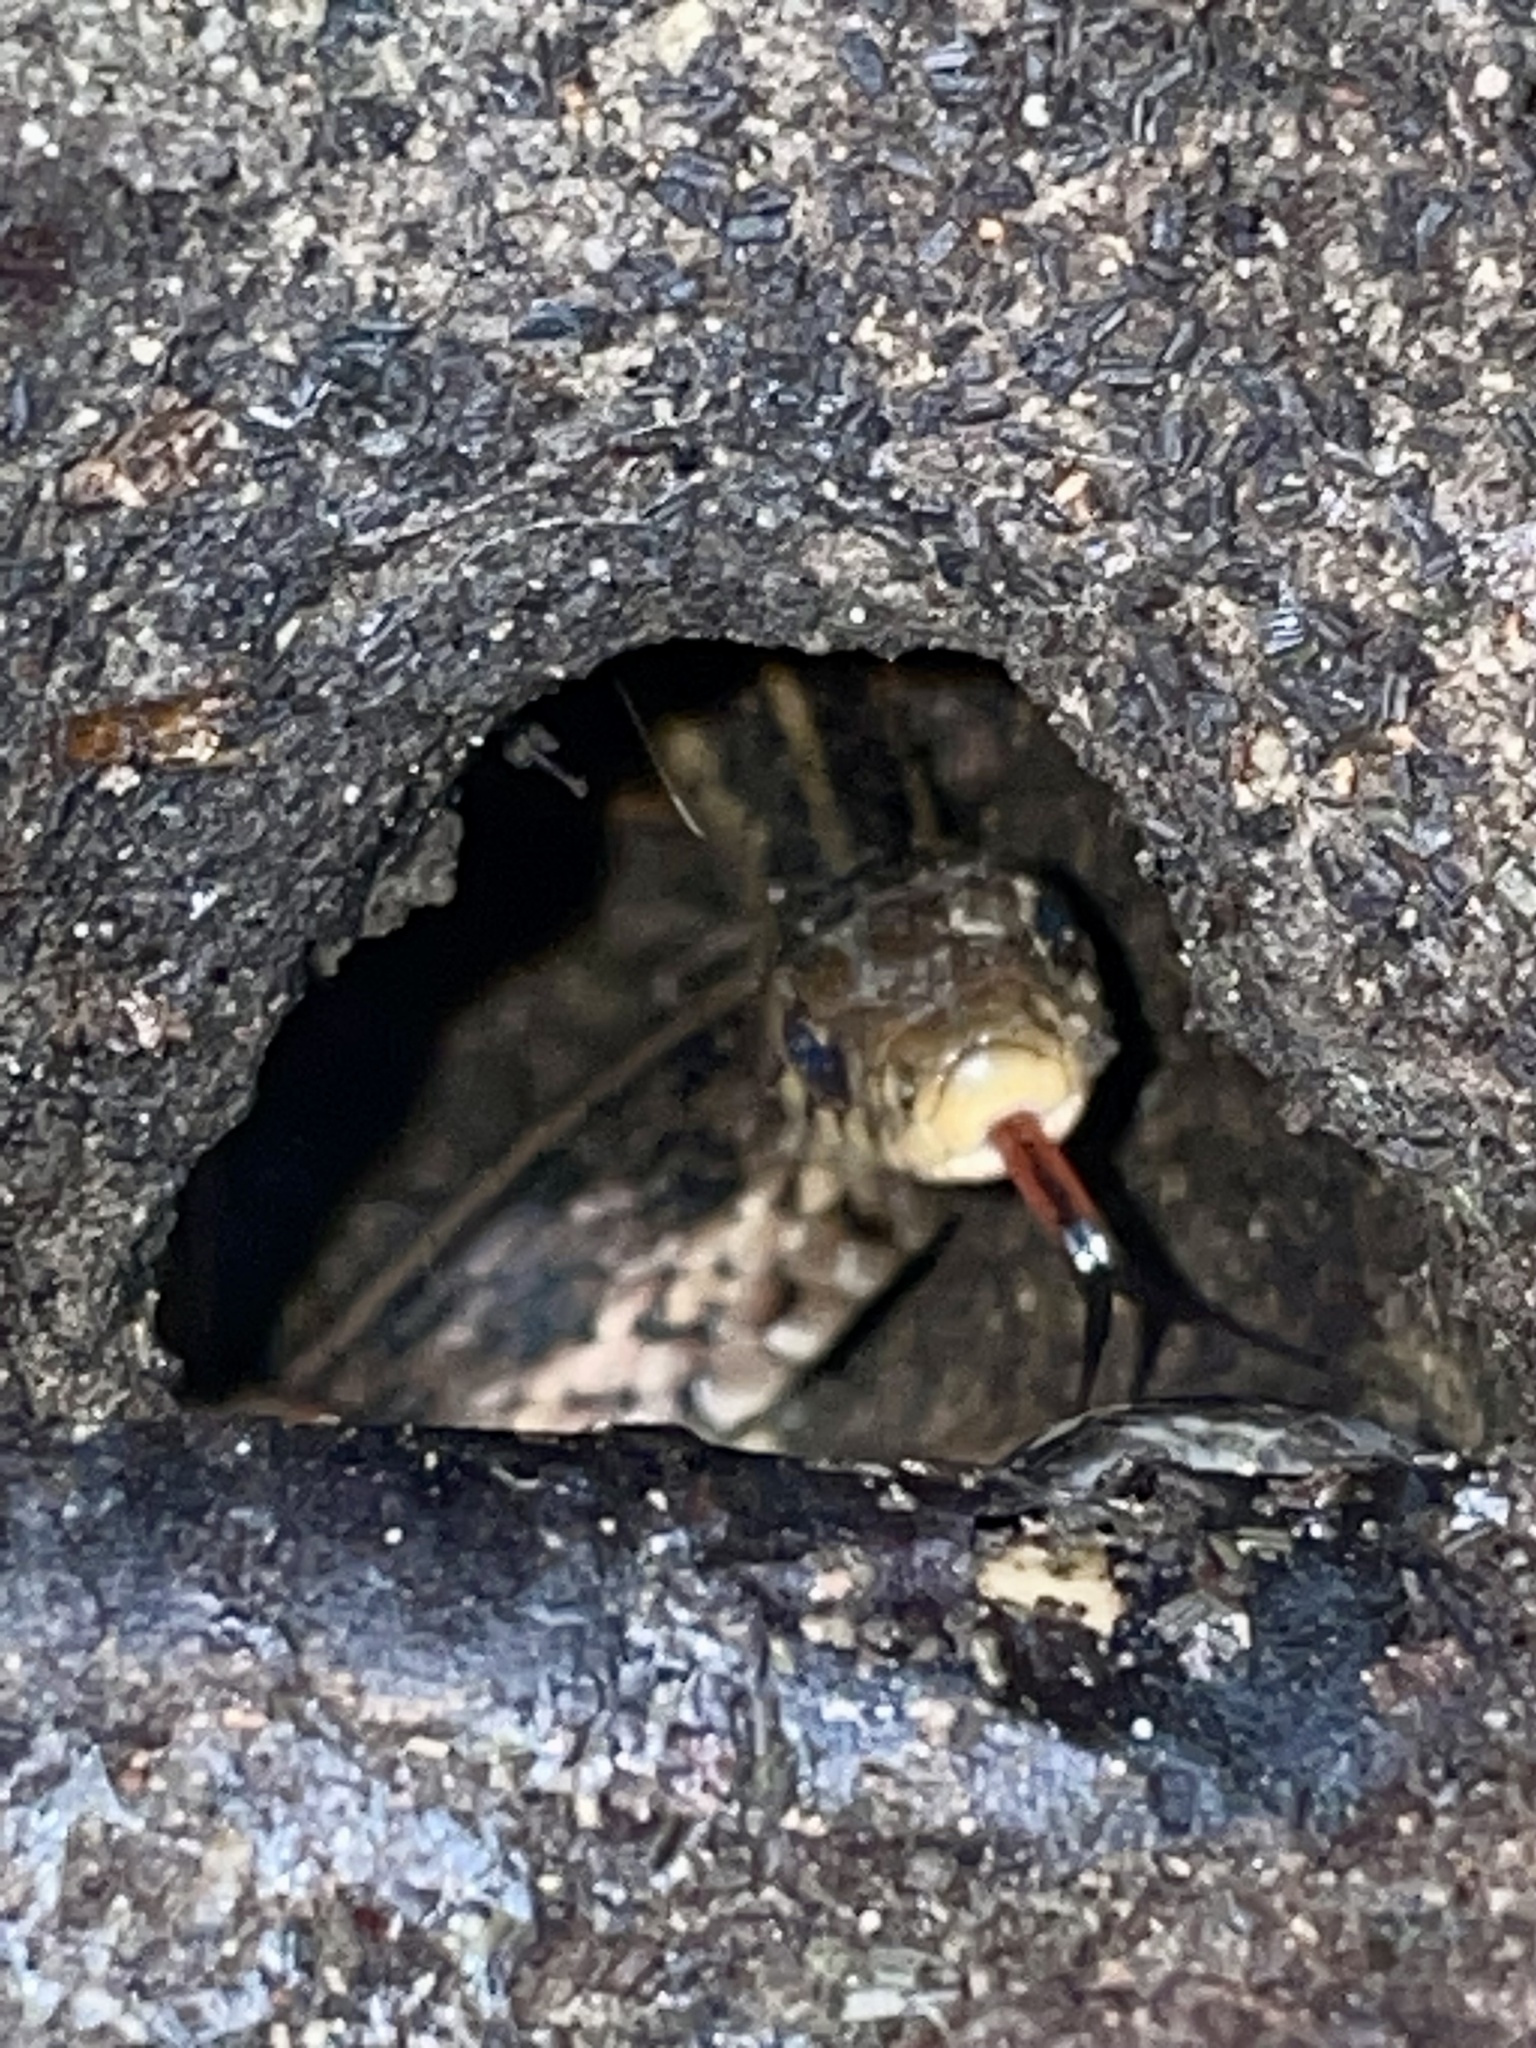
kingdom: Animalia
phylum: Chordata
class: Squamata
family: Colubridae
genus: Thamnophis
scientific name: Thamnophis sirtalis
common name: Common garter snake
